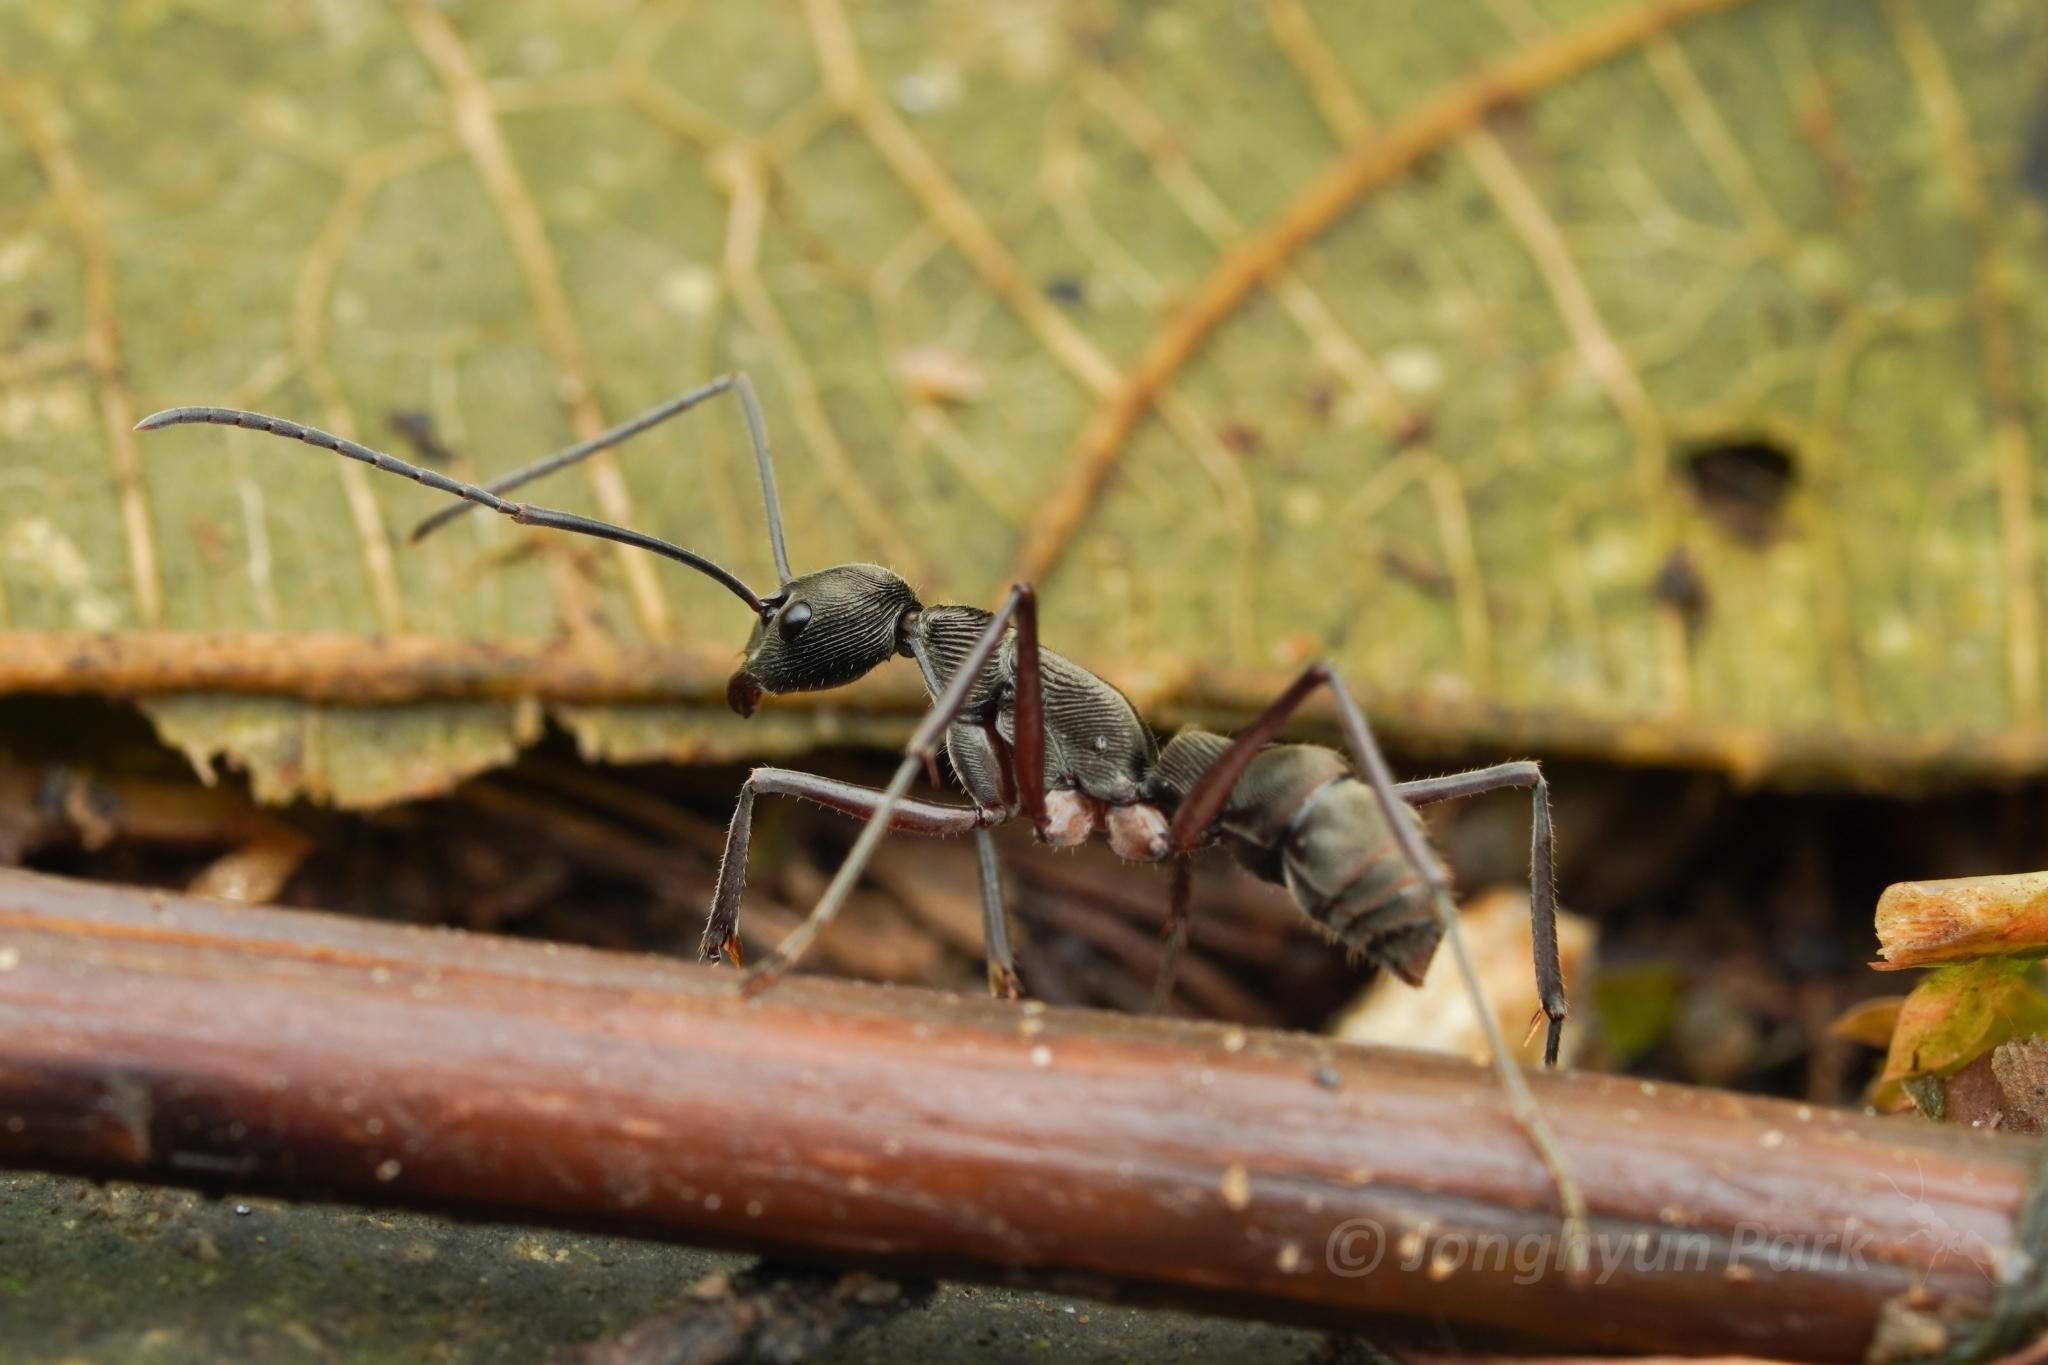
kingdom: Animalia
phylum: Arthropoda
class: Insecta
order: Hymenoptera
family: Formicidae
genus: Diacamma
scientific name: Diacamma
